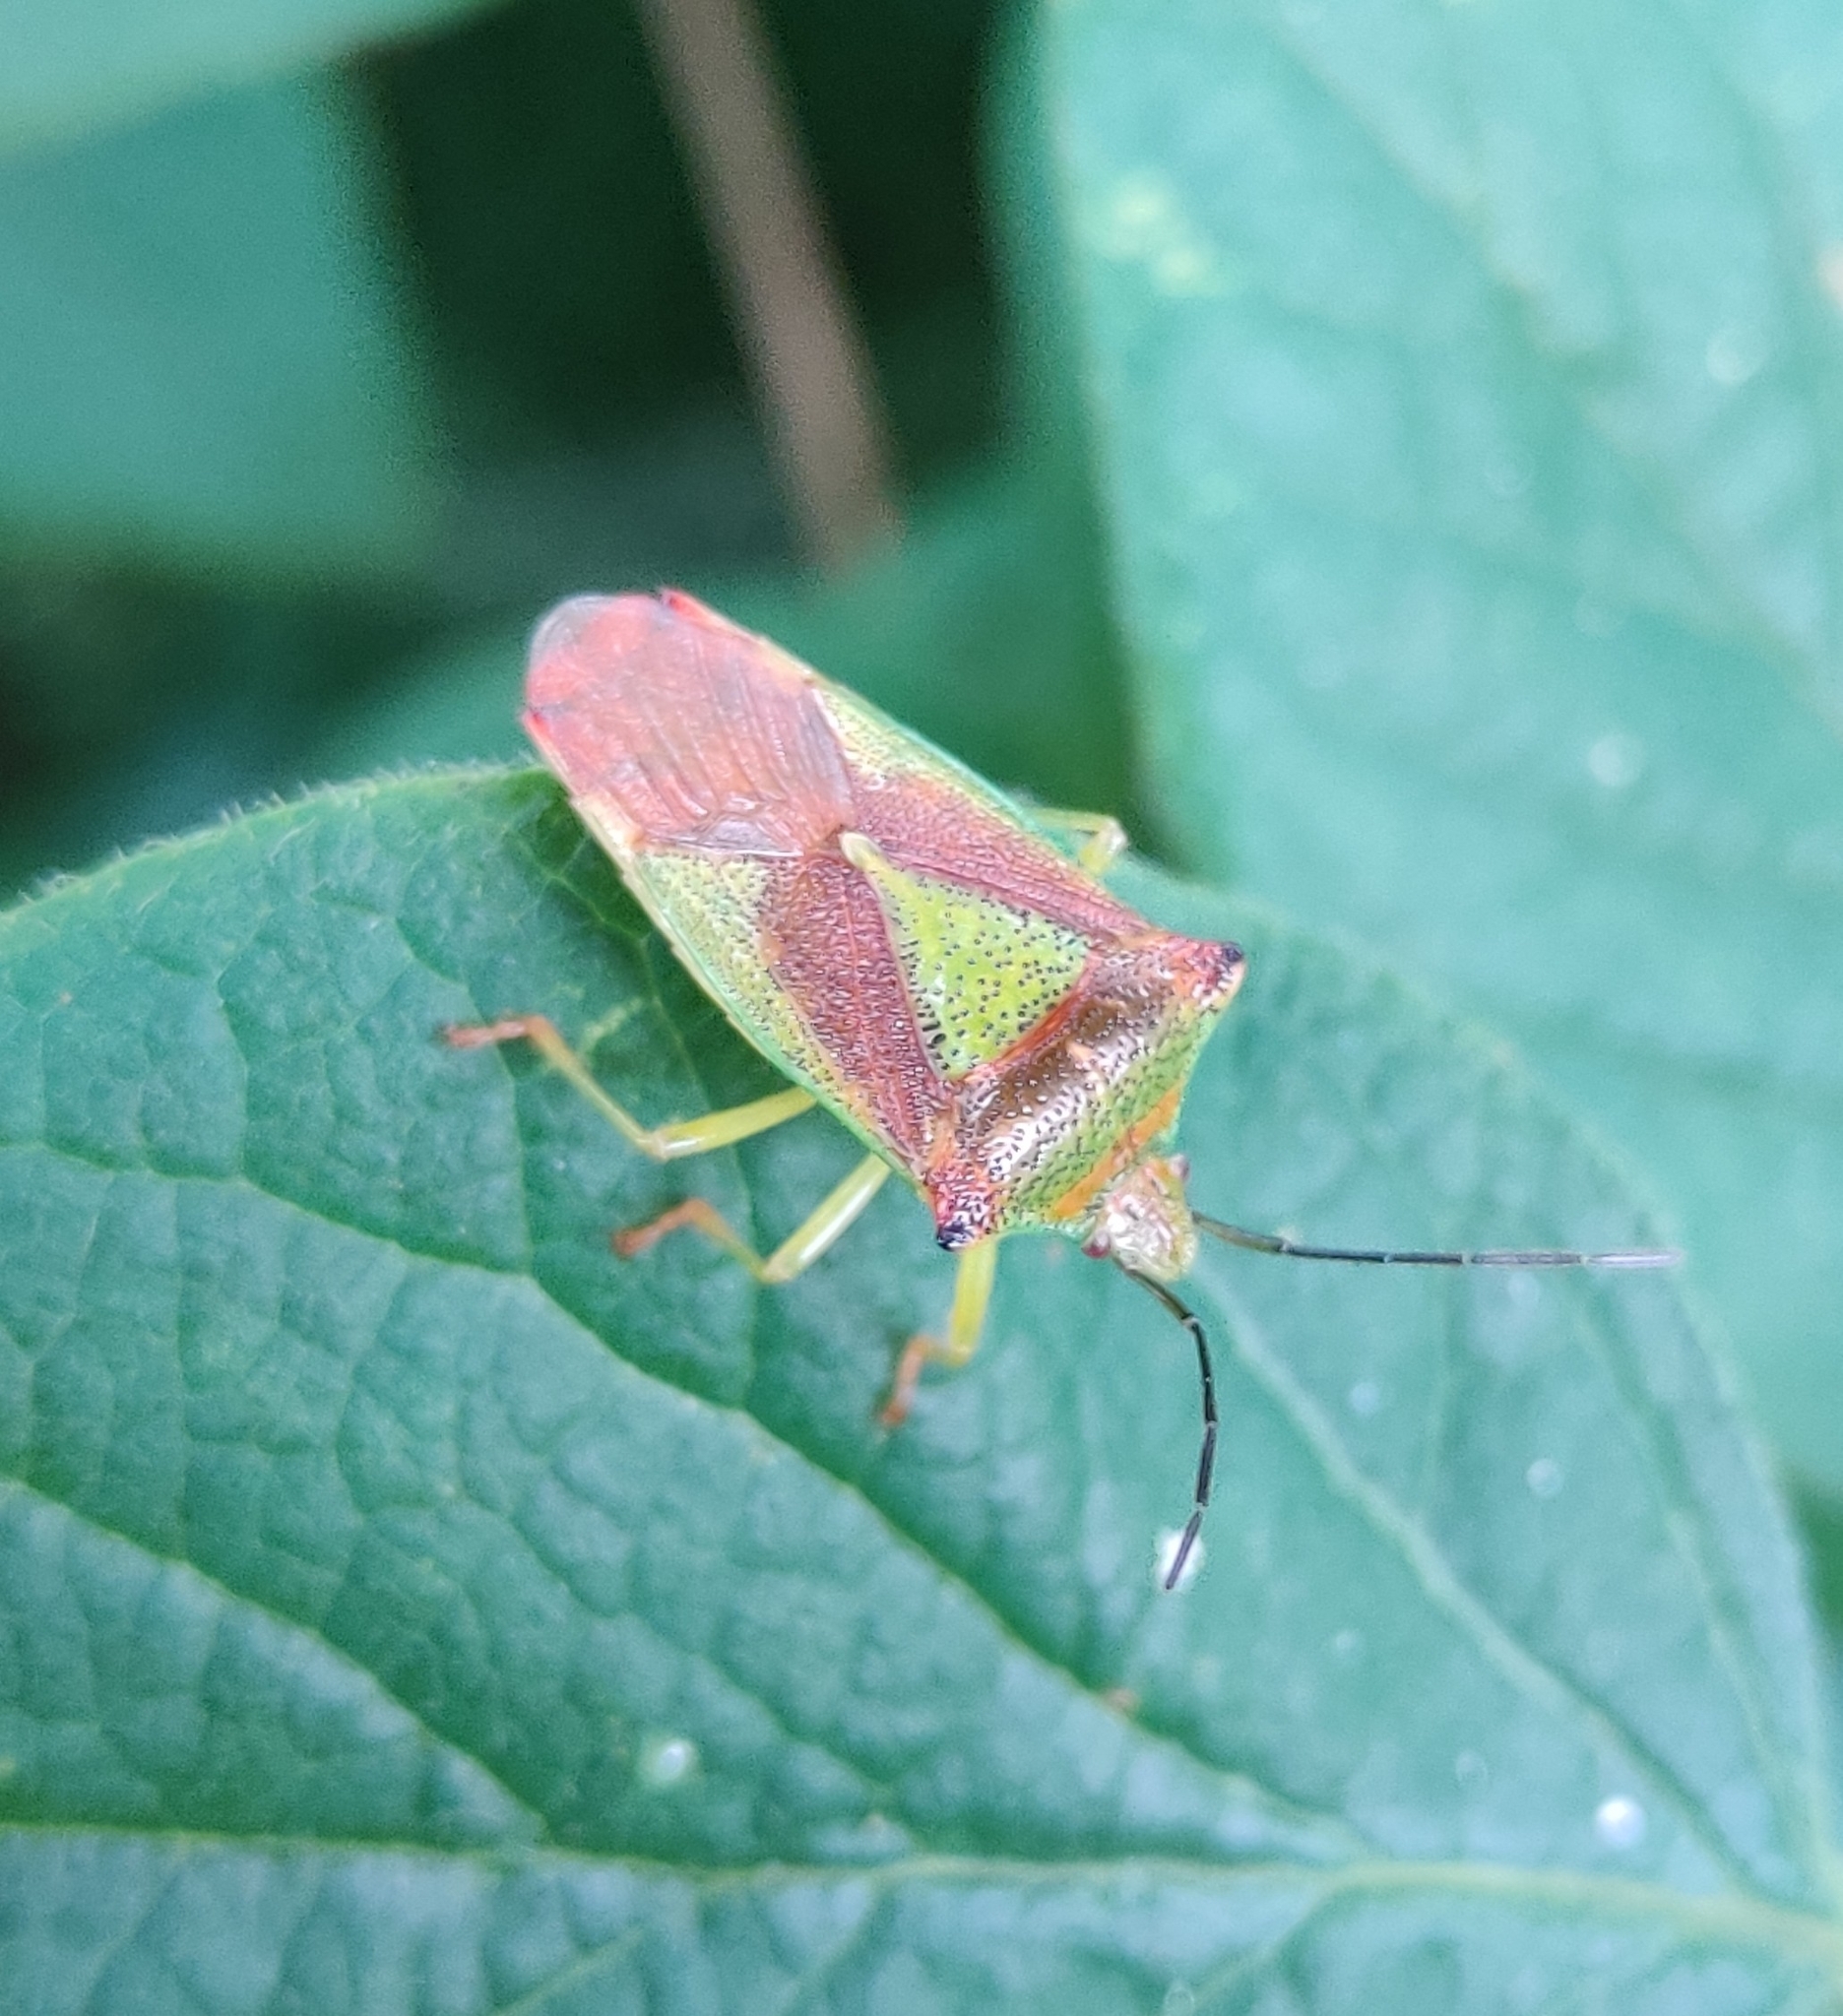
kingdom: Animalia
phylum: Arthropoda
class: Insecta
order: Hemiptera
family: Acanthosomatidae
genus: Acanthosoma
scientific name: Acanthosoma haemorrhoidale
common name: Hawthorn shieldbug
